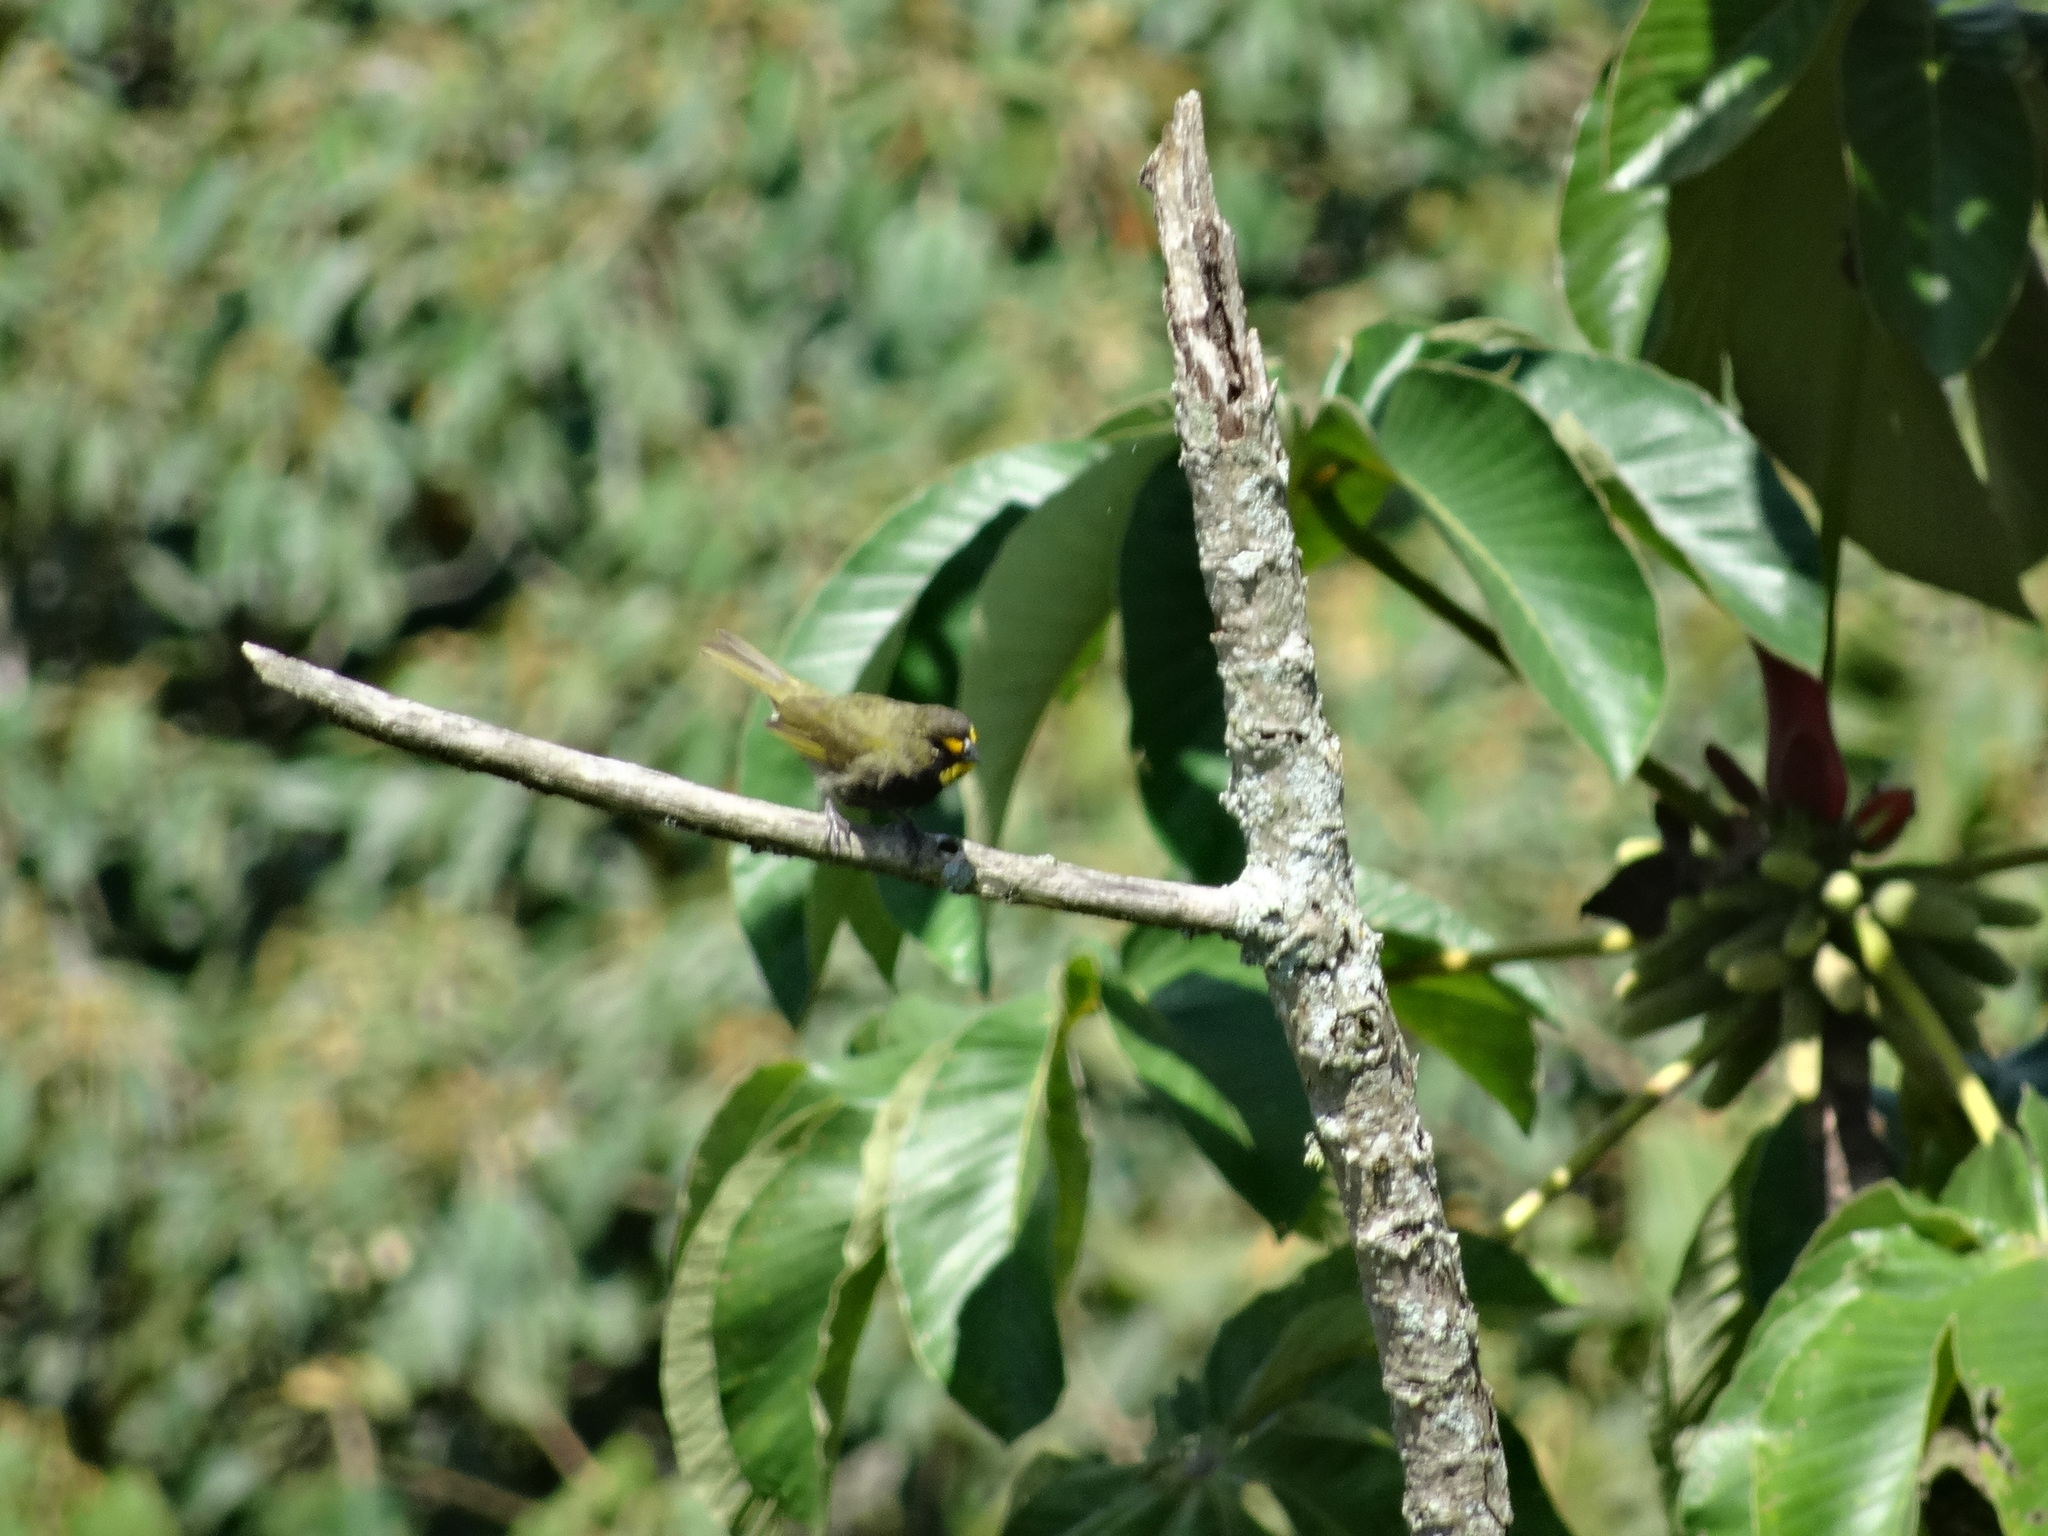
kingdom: Animalia
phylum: Chordata
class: Aves
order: Passeriformes
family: Thraupidae
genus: Tiaris
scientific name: Tiaris olivaceus
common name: Yellow-faced grassquit
